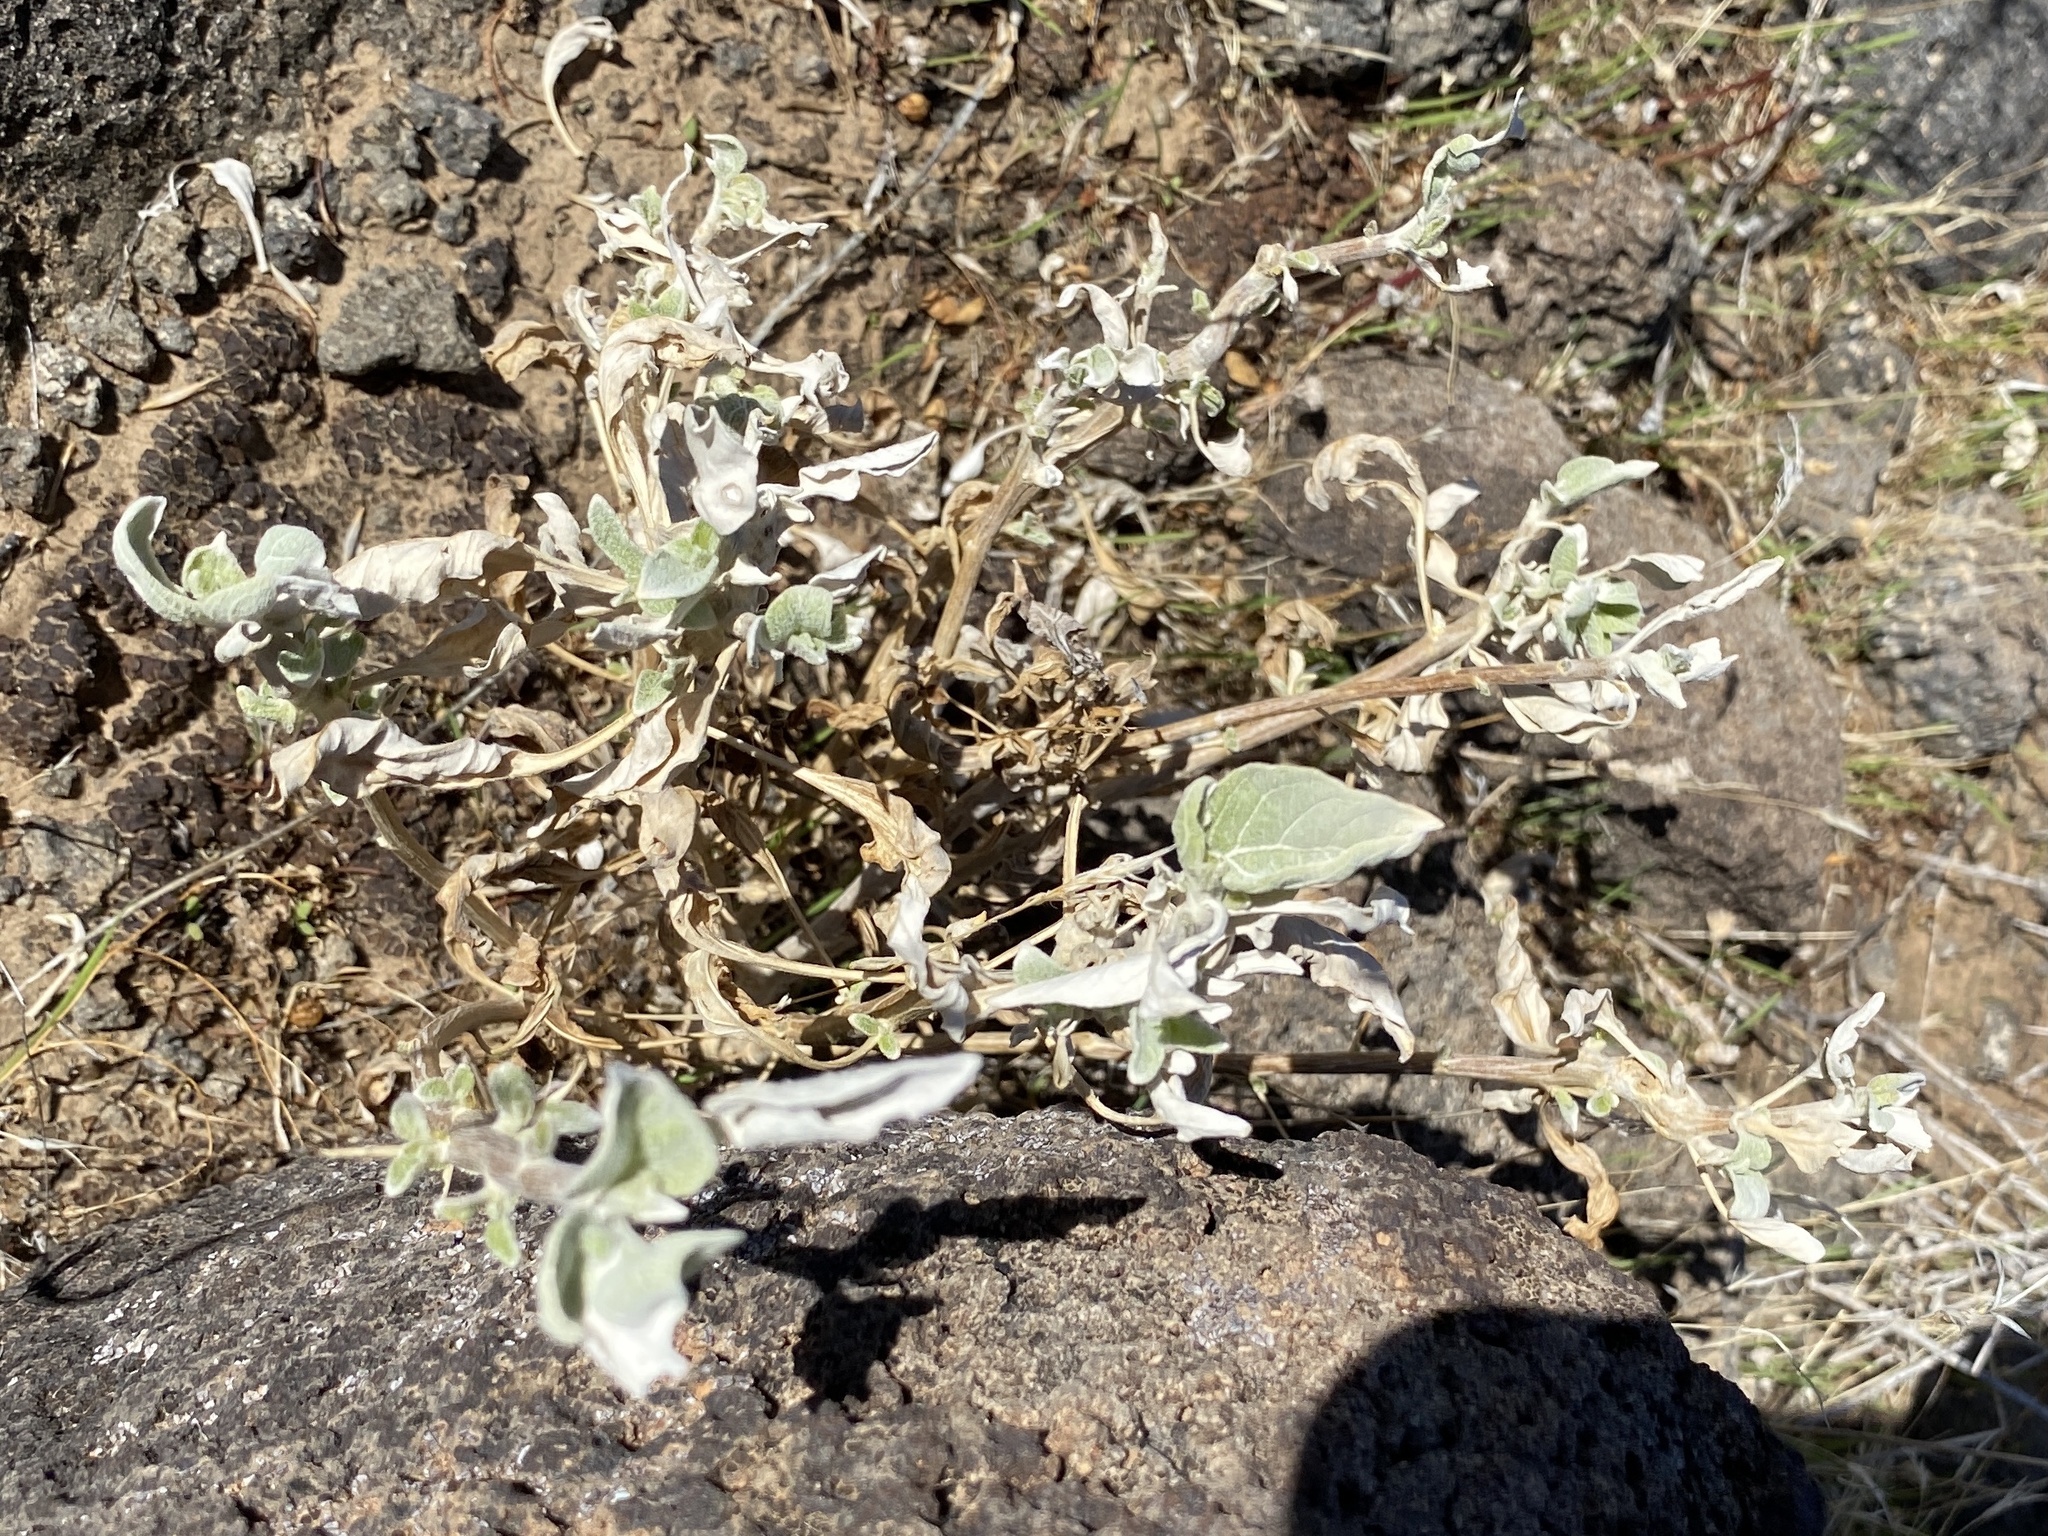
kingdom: Plantae
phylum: Tracheophyta
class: Magnoliopsida
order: Asterales
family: Asteraceae
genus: Encelia
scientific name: Encelia farinosa
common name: Brittlebush
